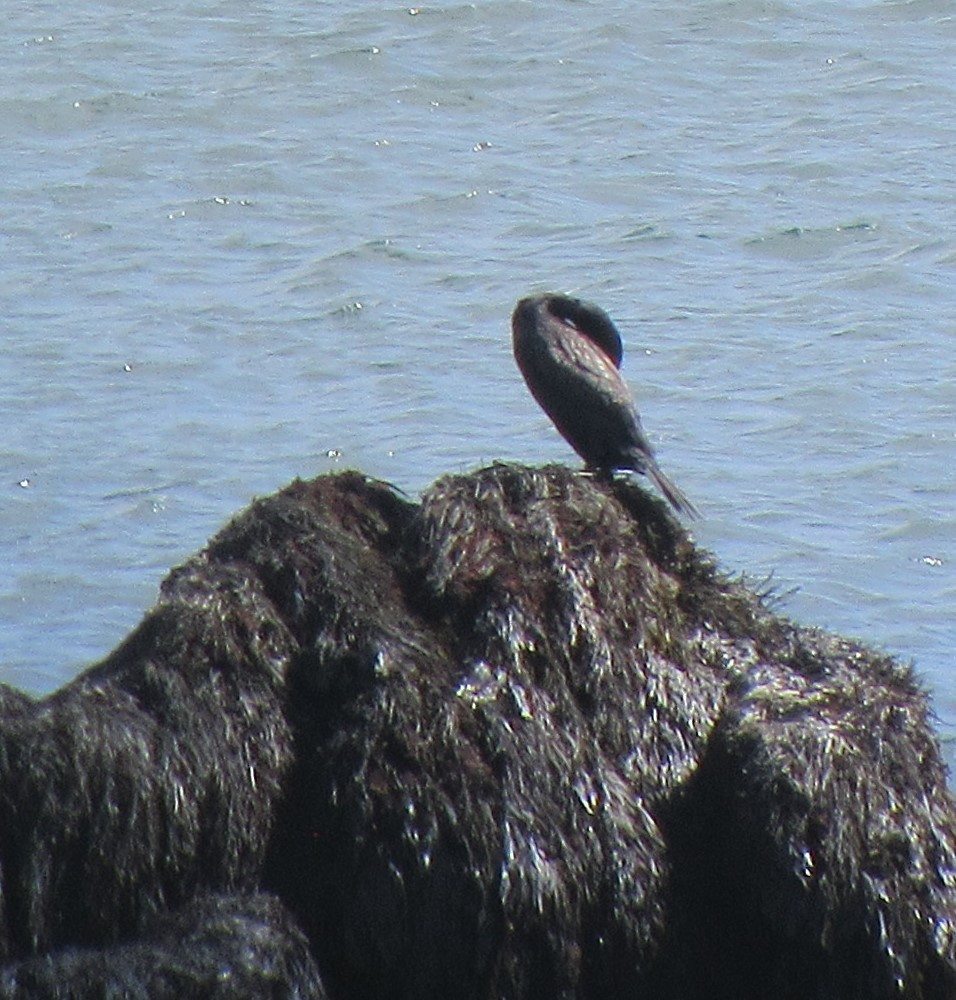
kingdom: Animalia
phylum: Chordata
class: Aves
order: Suliformes
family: Phalacrocoracidae
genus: Phalacrocorax
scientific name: Phalacrocorax carbo
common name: Great cormorant
